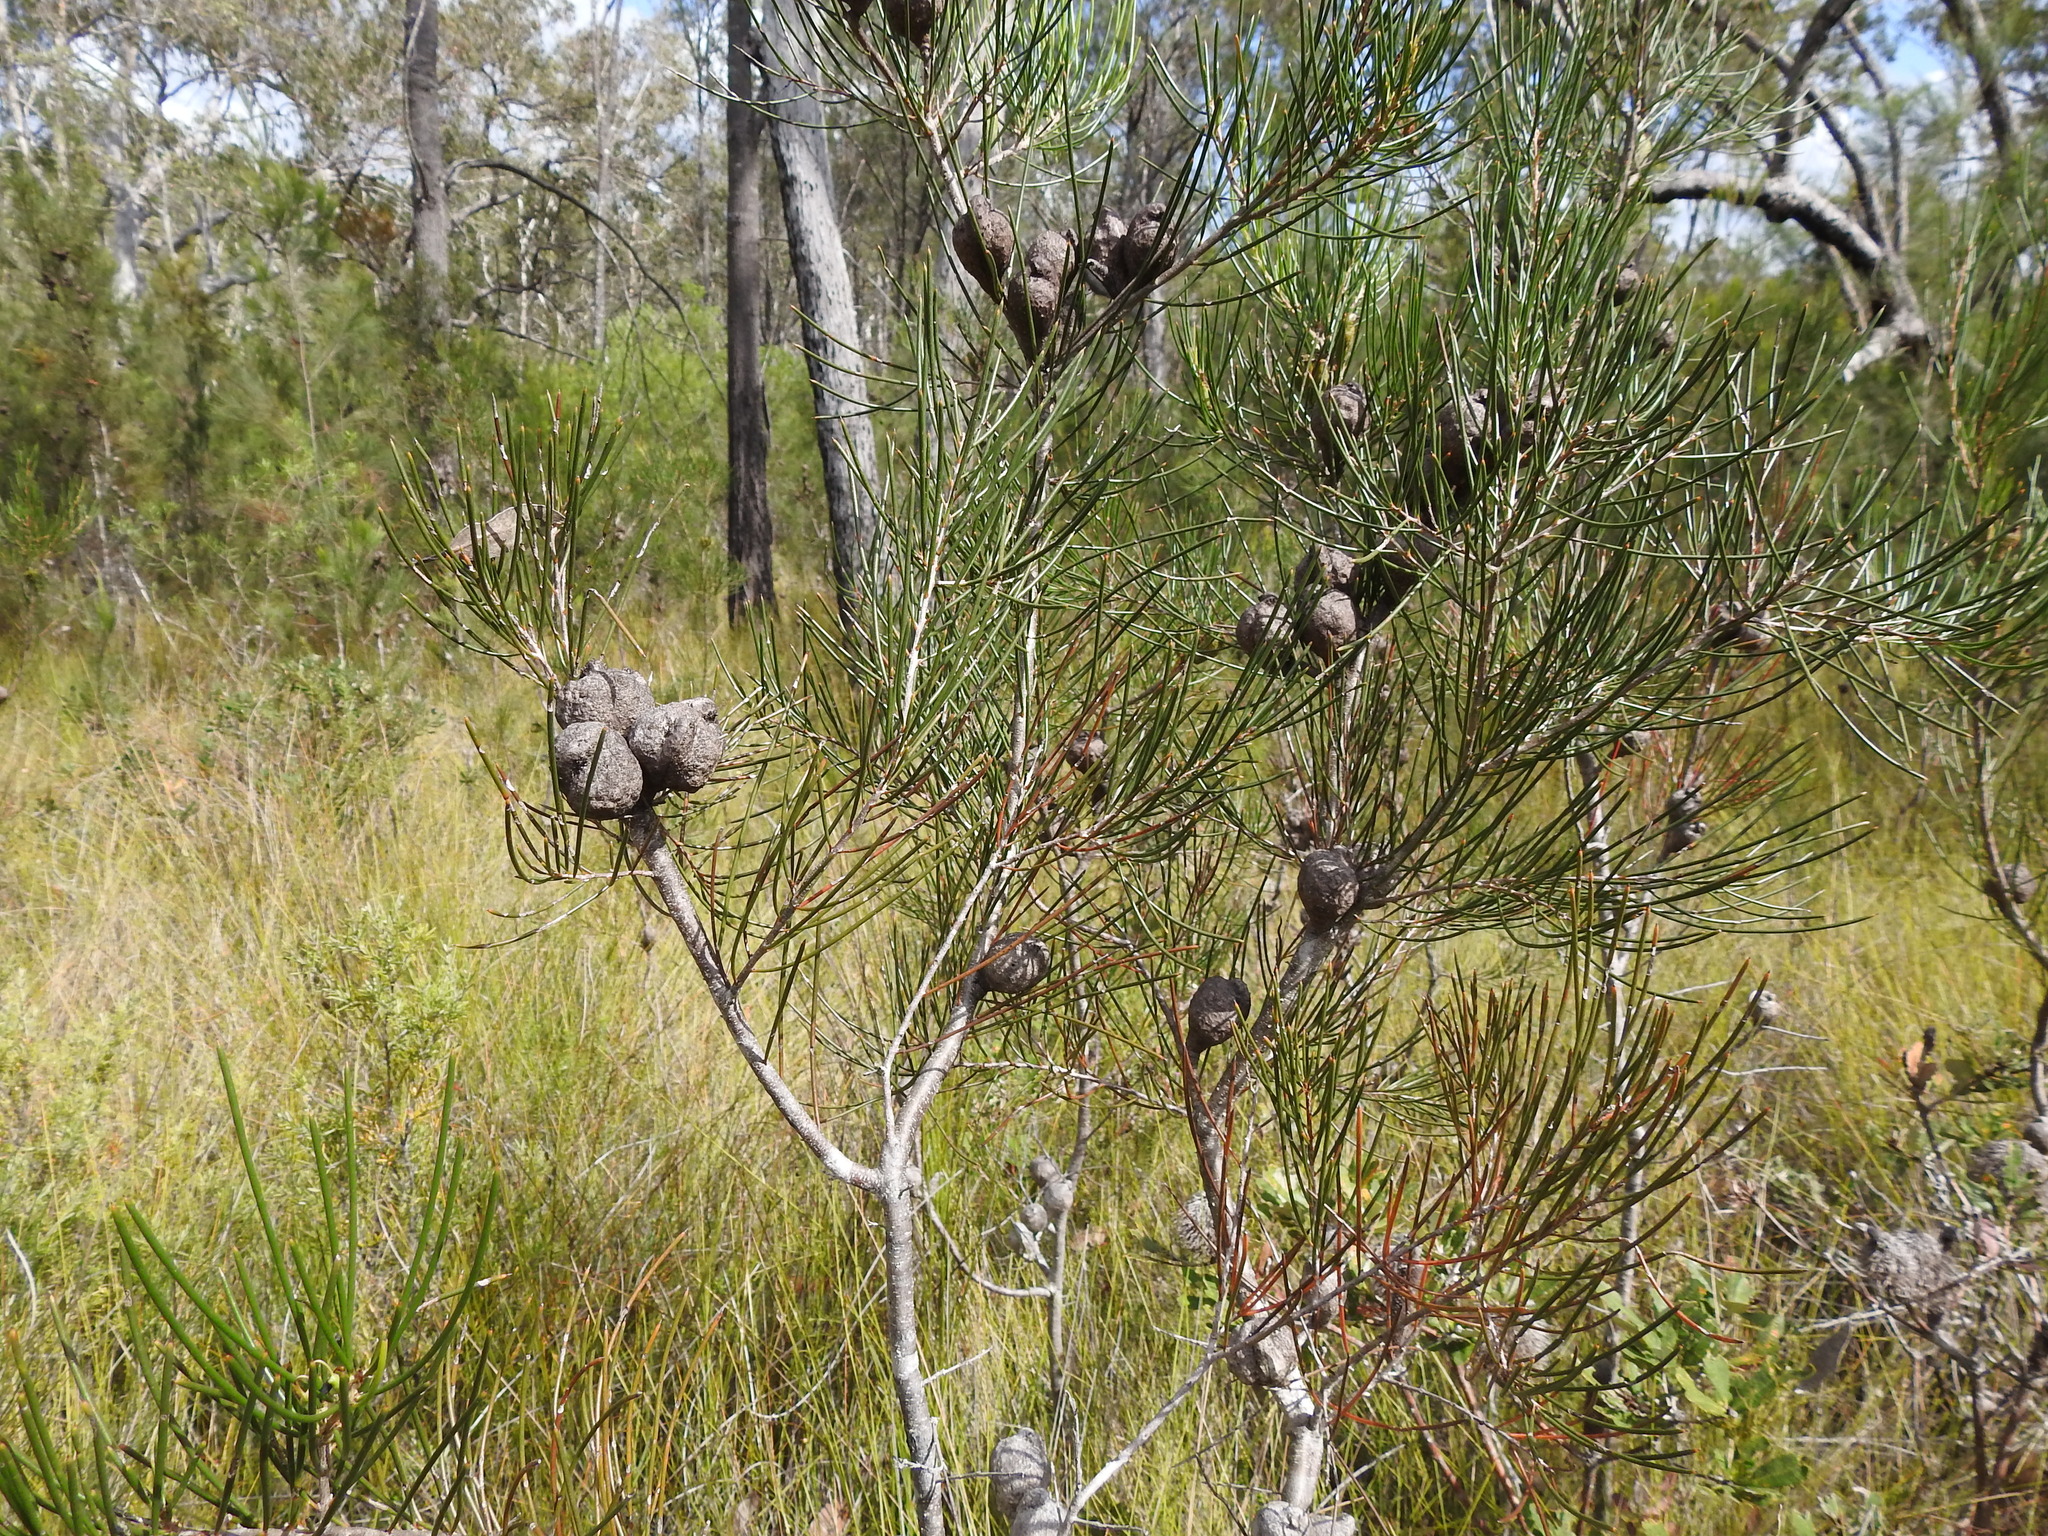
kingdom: Plantae
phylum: Tracheophyta
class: Magnoliopsida
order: Proteales
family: Proteaceae
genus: Hakea
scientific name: Hakea actites
